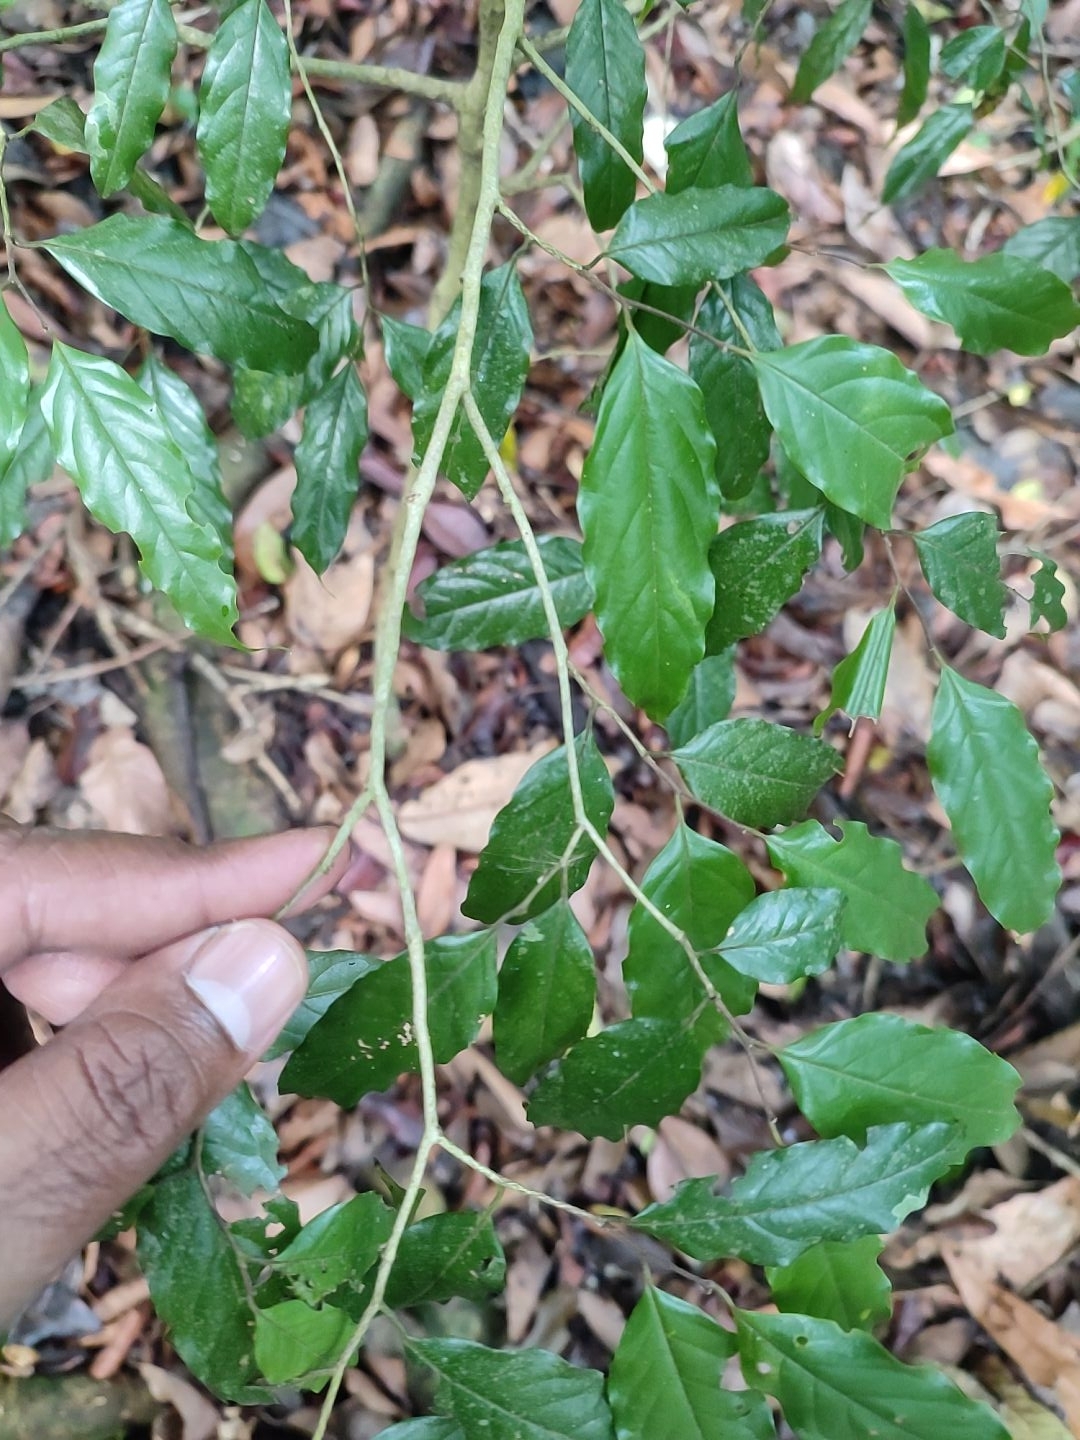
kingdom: Plantae
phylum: Tracheophyta
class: Magnoliopsida
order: Magnoliales
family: Annonaceae
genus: Meiogyne
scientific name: Meiogyne pannosa
